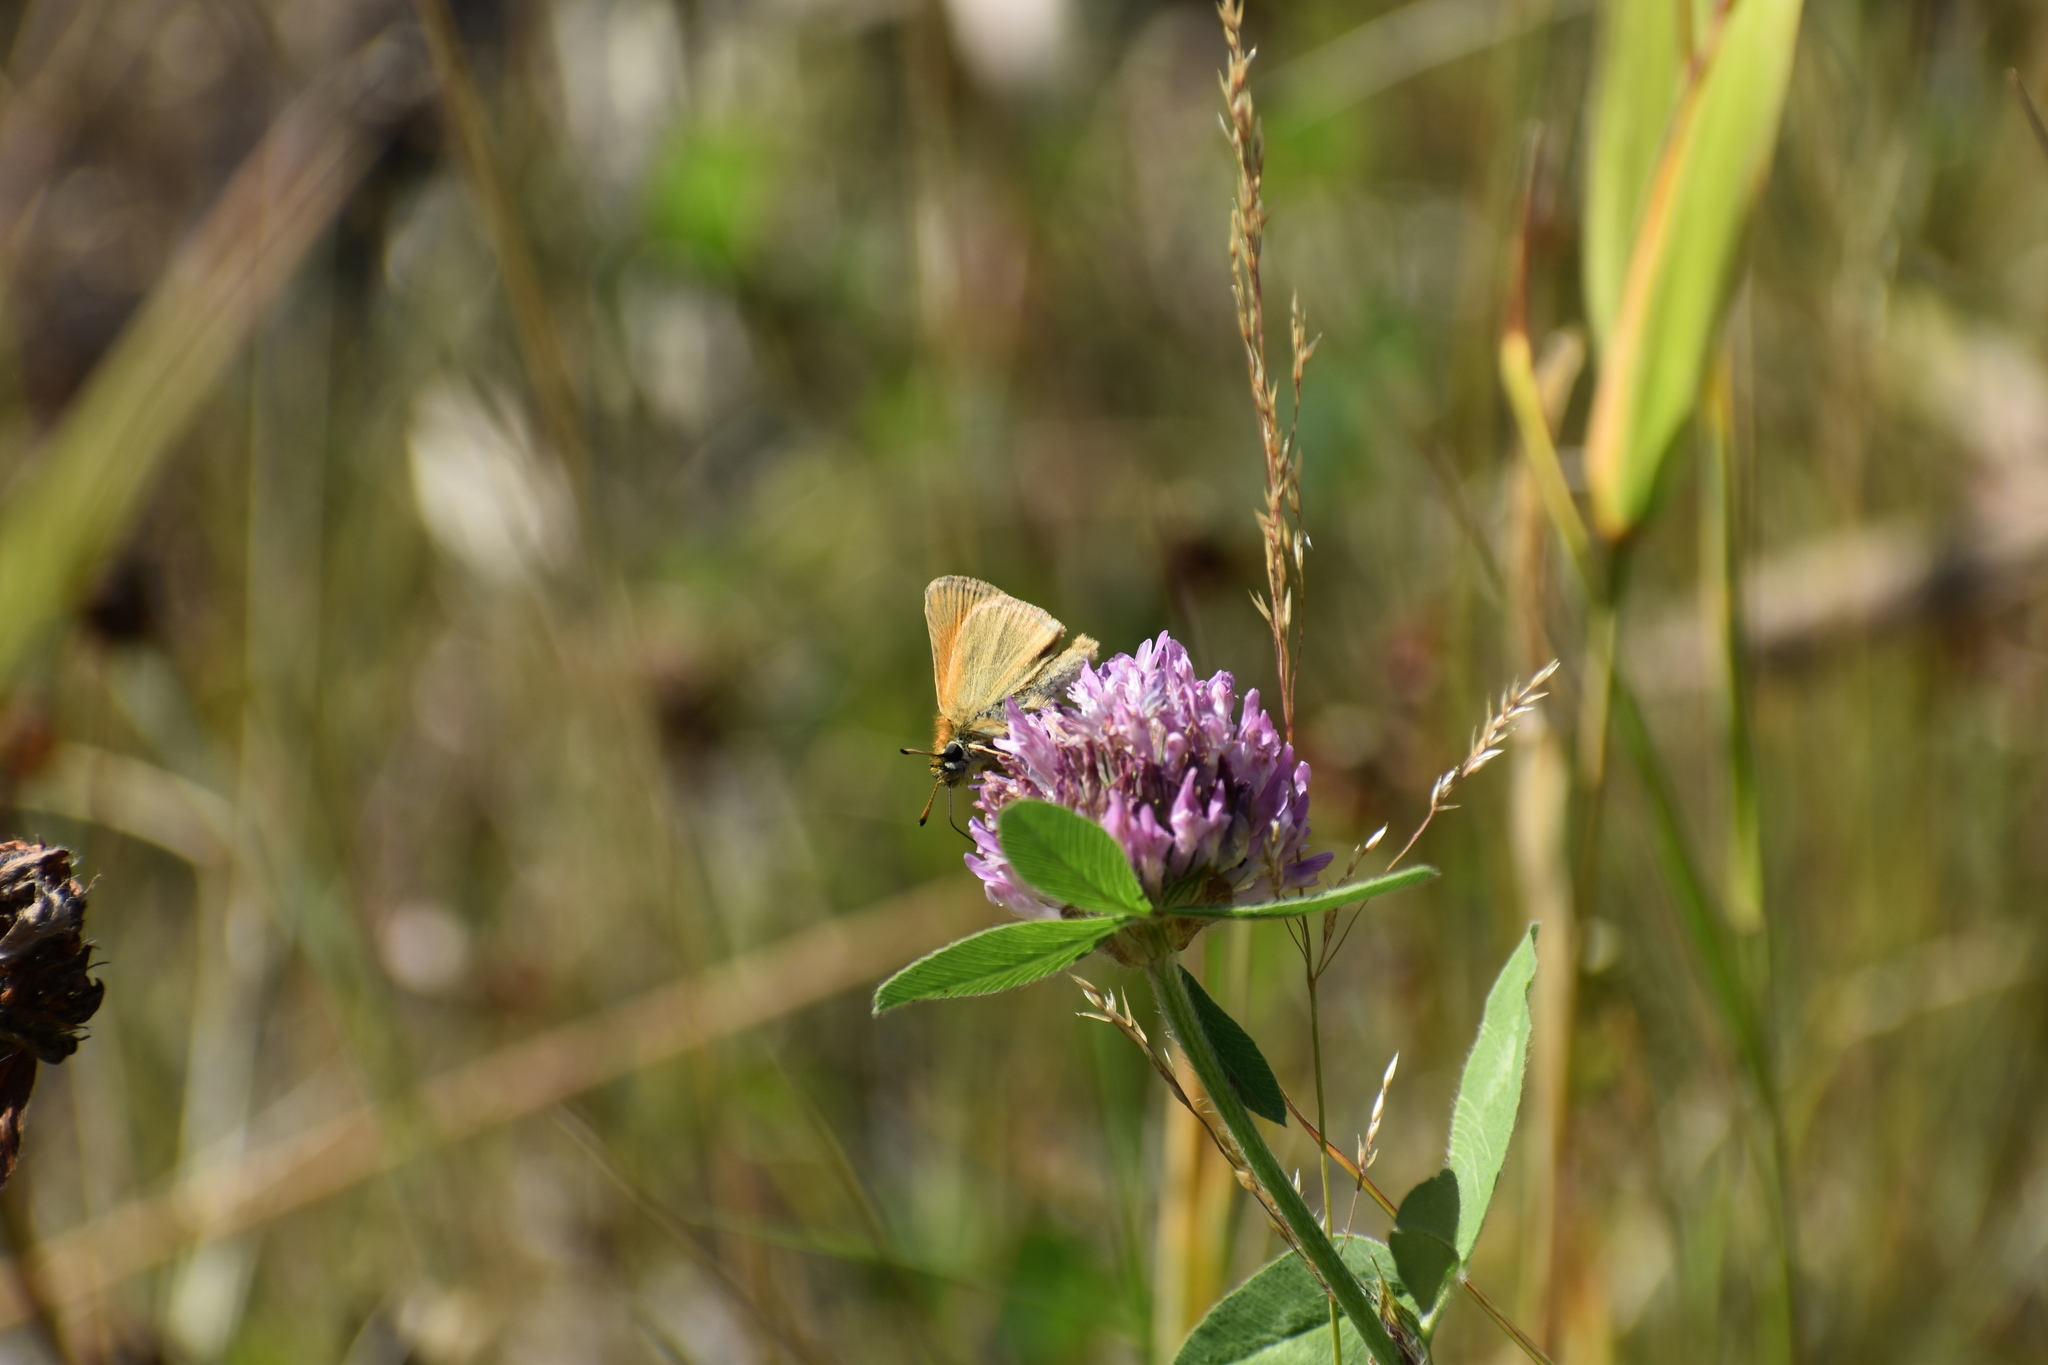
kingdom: Animalia
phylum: Arthropoda
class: Insecta
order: Lepidoptera
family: Hesperiidae
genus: Thymelicus
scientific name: Thymelicus lineola
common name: Essex skipper
